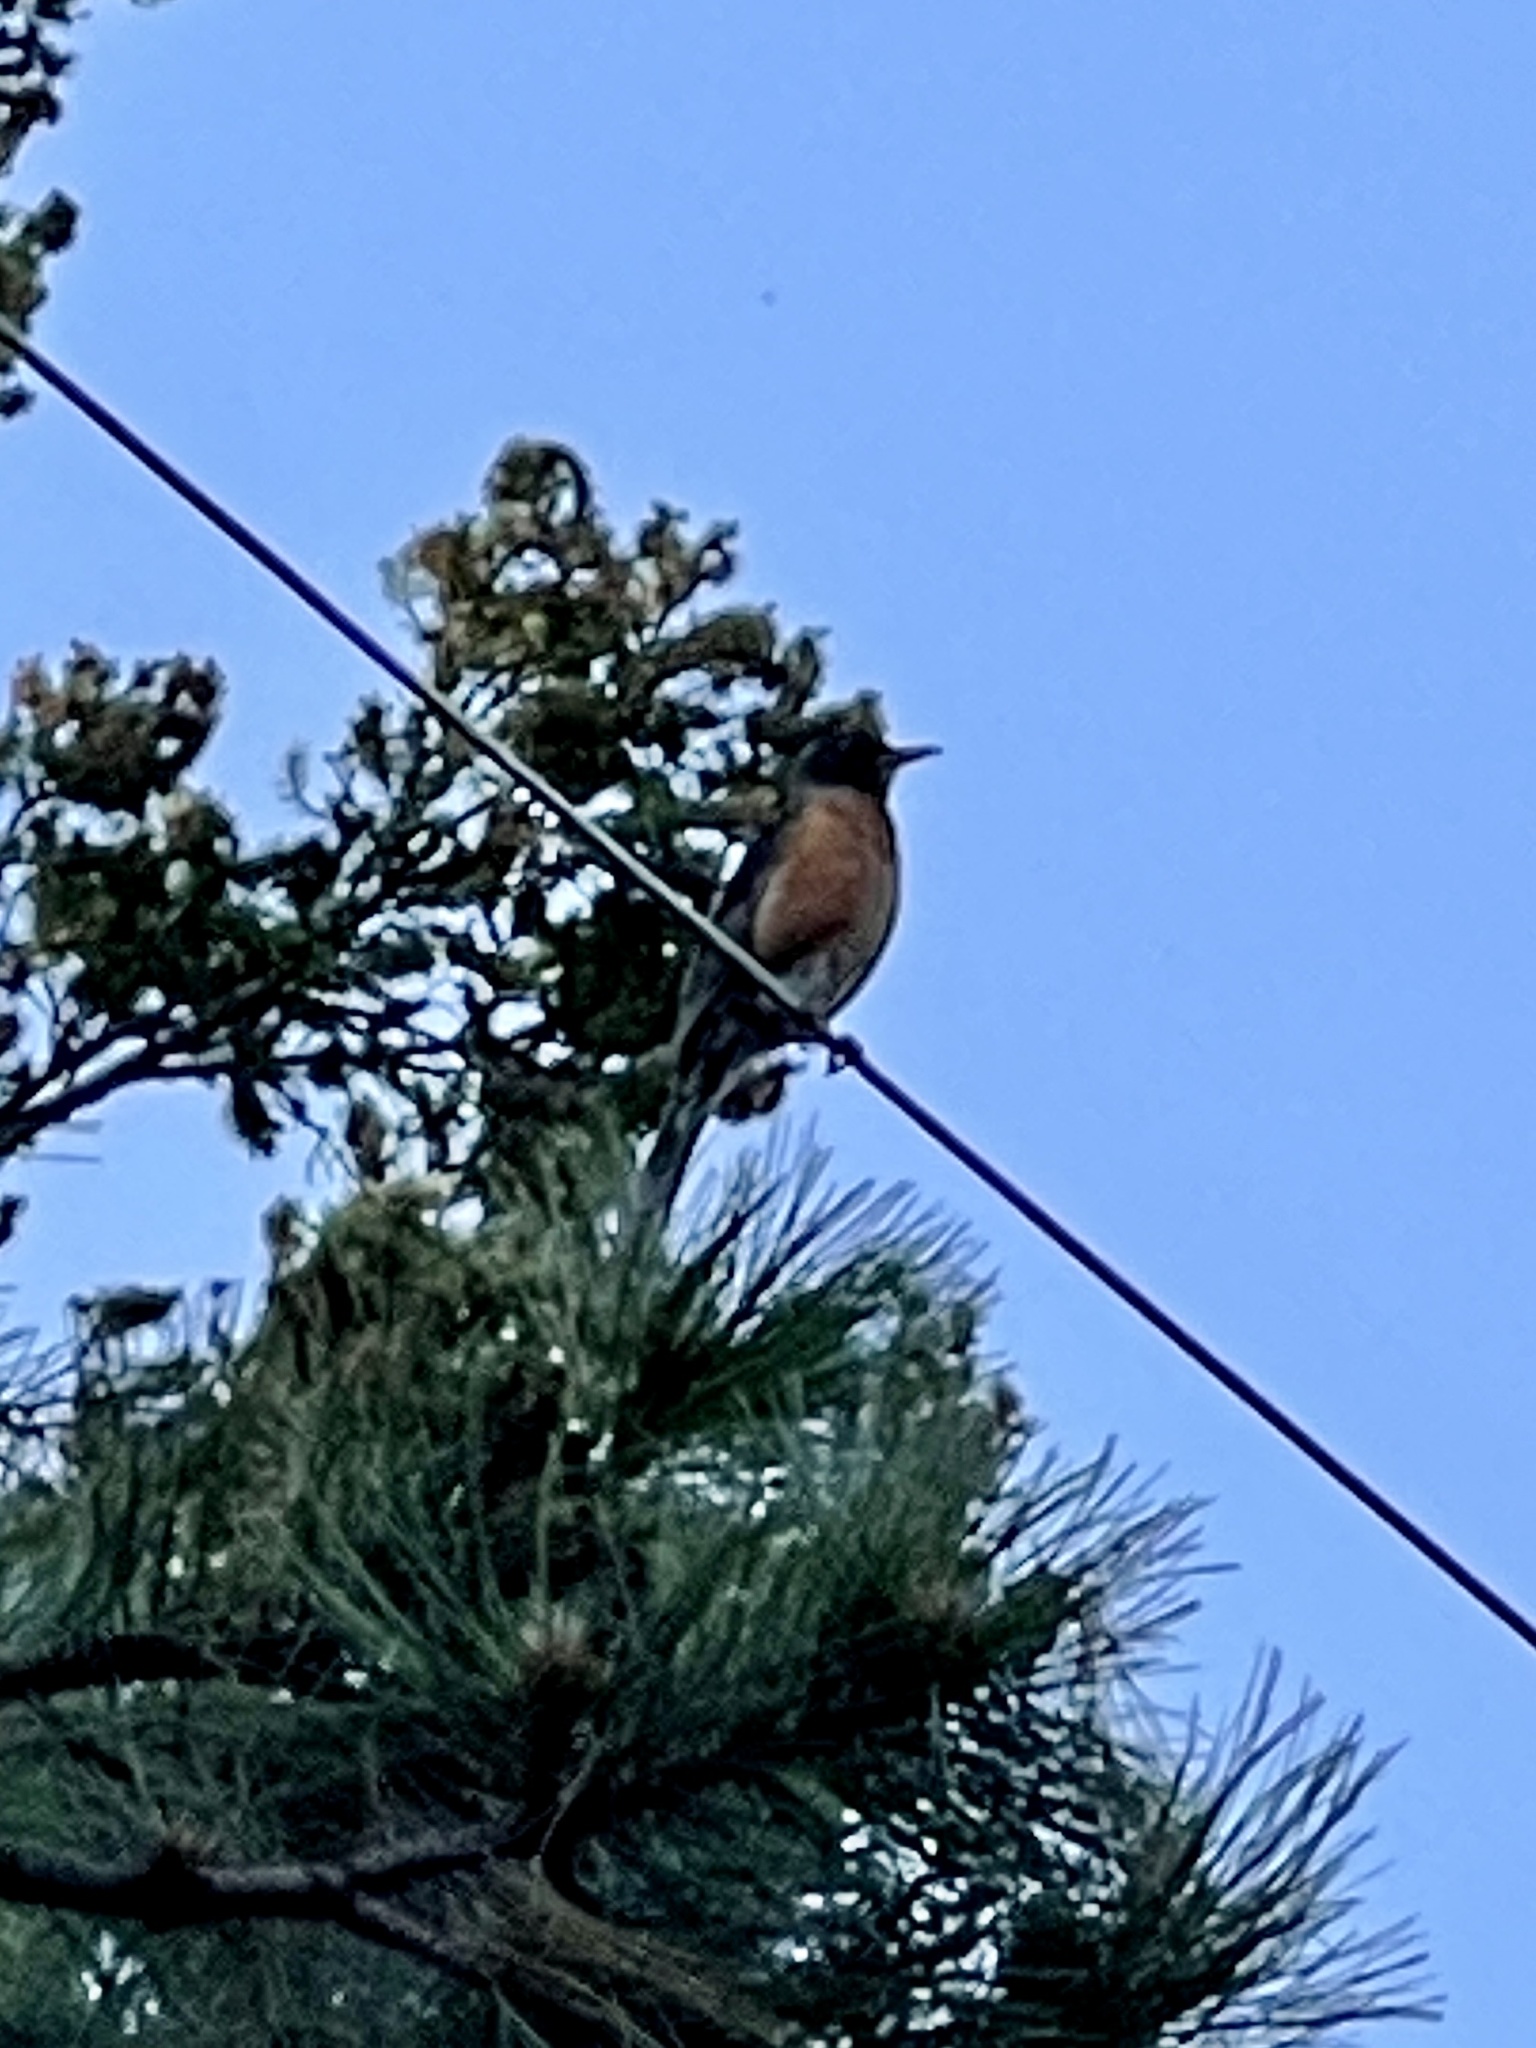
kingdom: Animalia
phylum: Chordata
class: Aves
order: Passeriformes
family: Turdidae
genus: Turdus
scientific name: Turdus migratorius
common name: American robin
